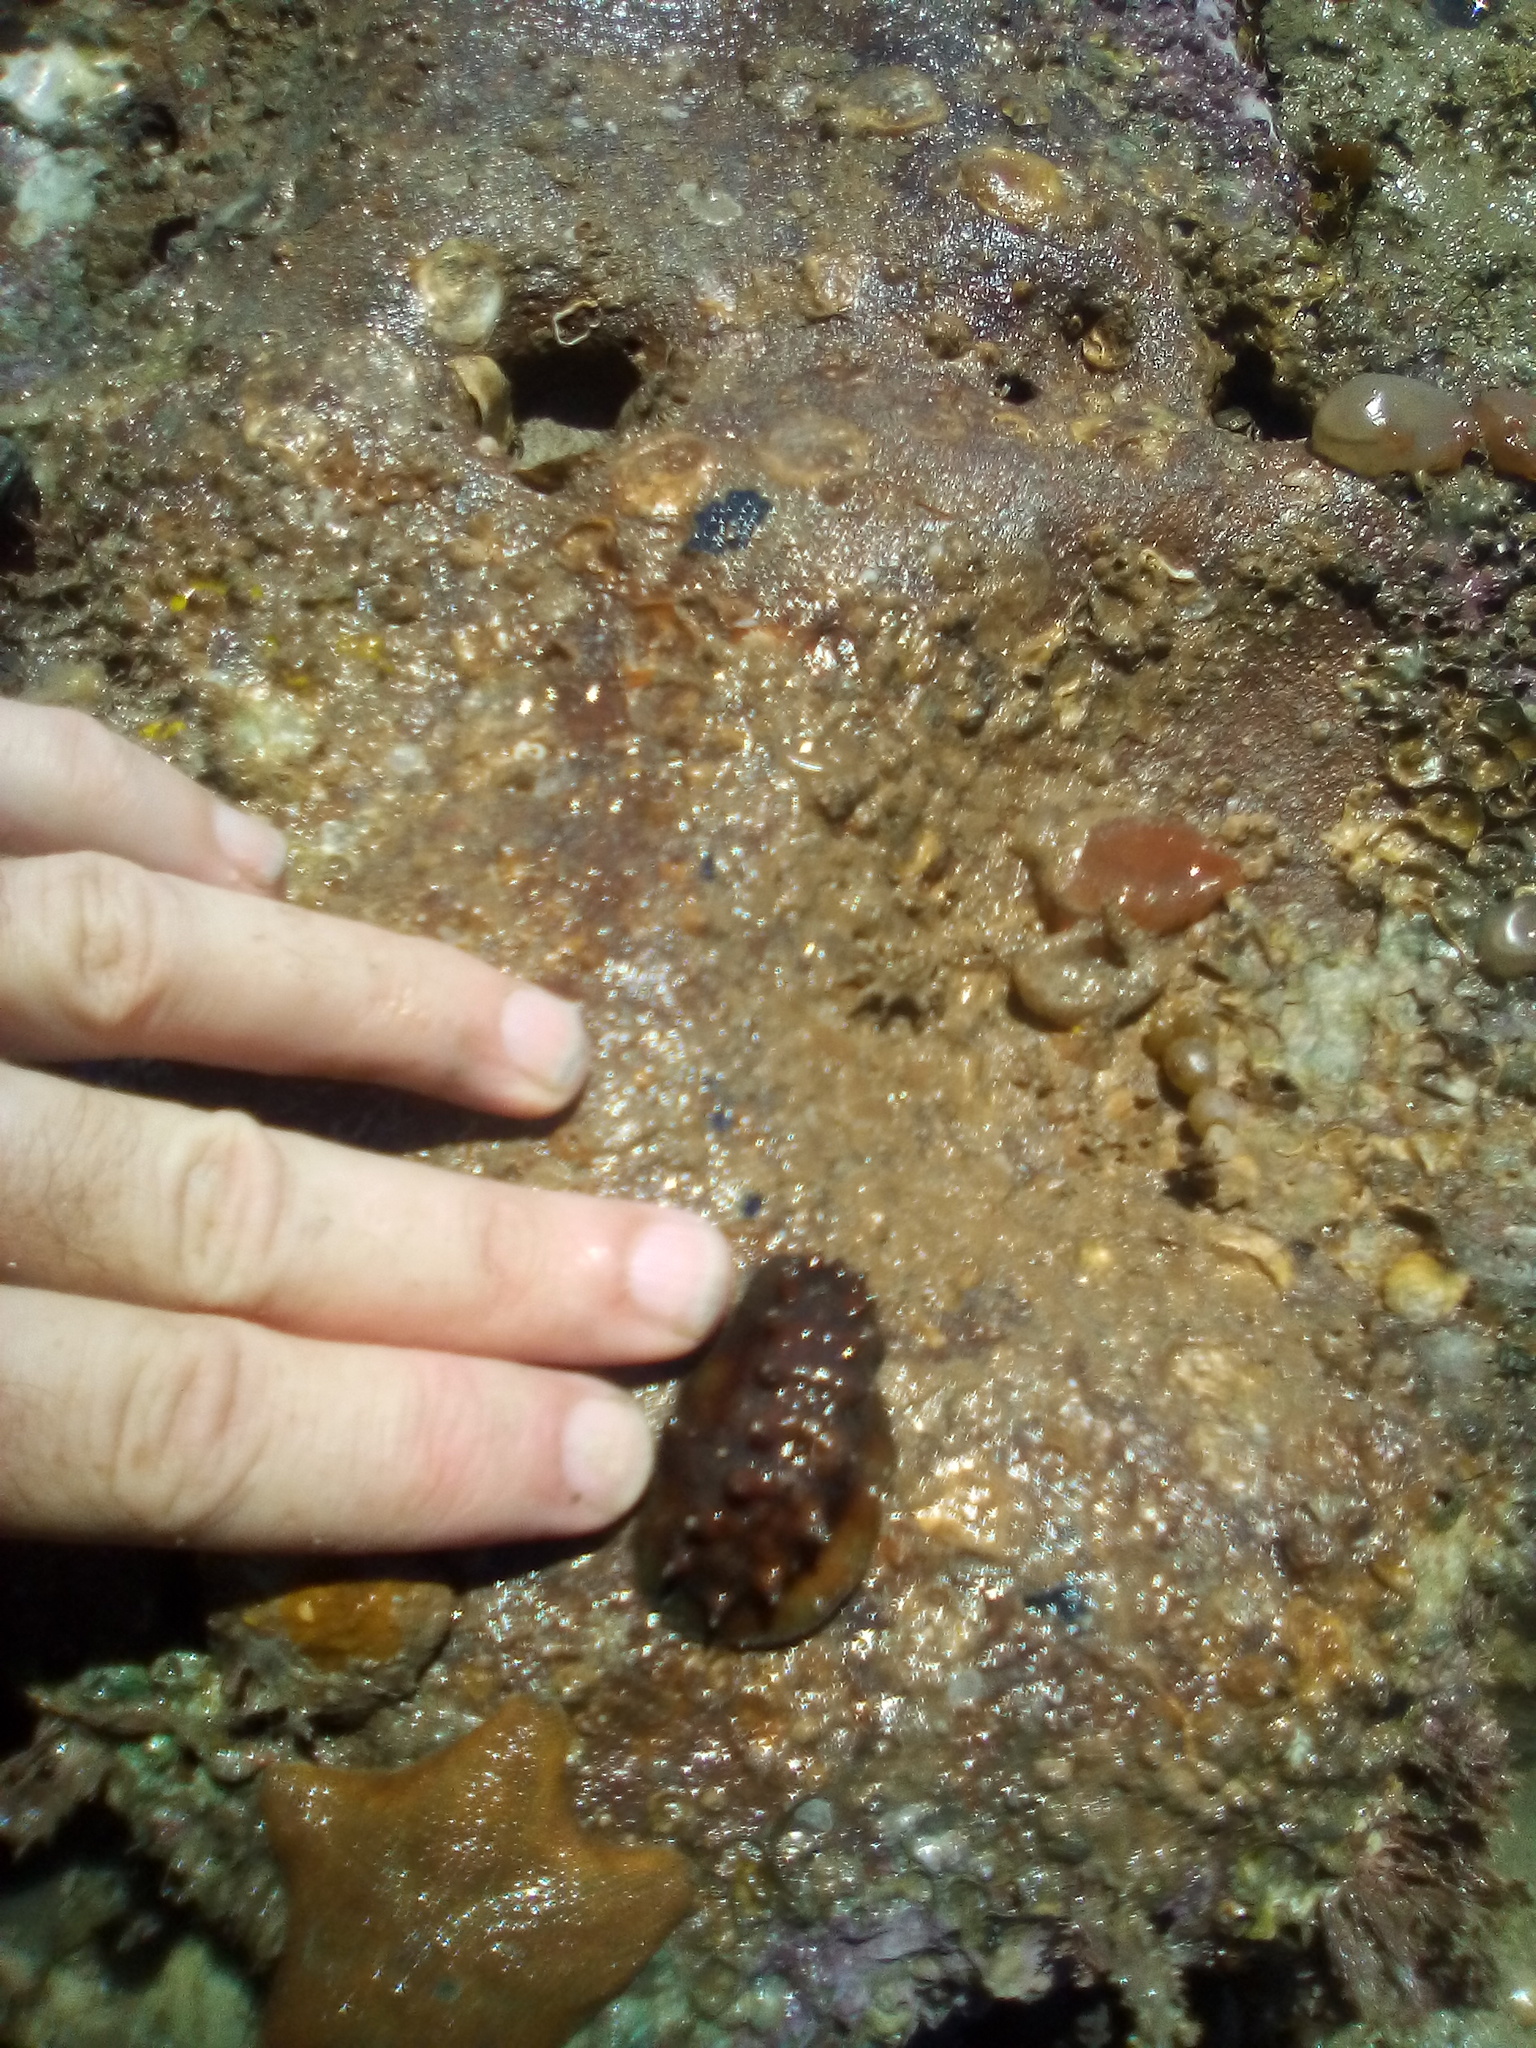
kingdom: Animalia
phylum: Mollusca
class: Polyplacophora
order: Chitonida
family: Acanthochitonidae
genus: Cryptoconchus
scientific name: Cryptoconchus porosus
